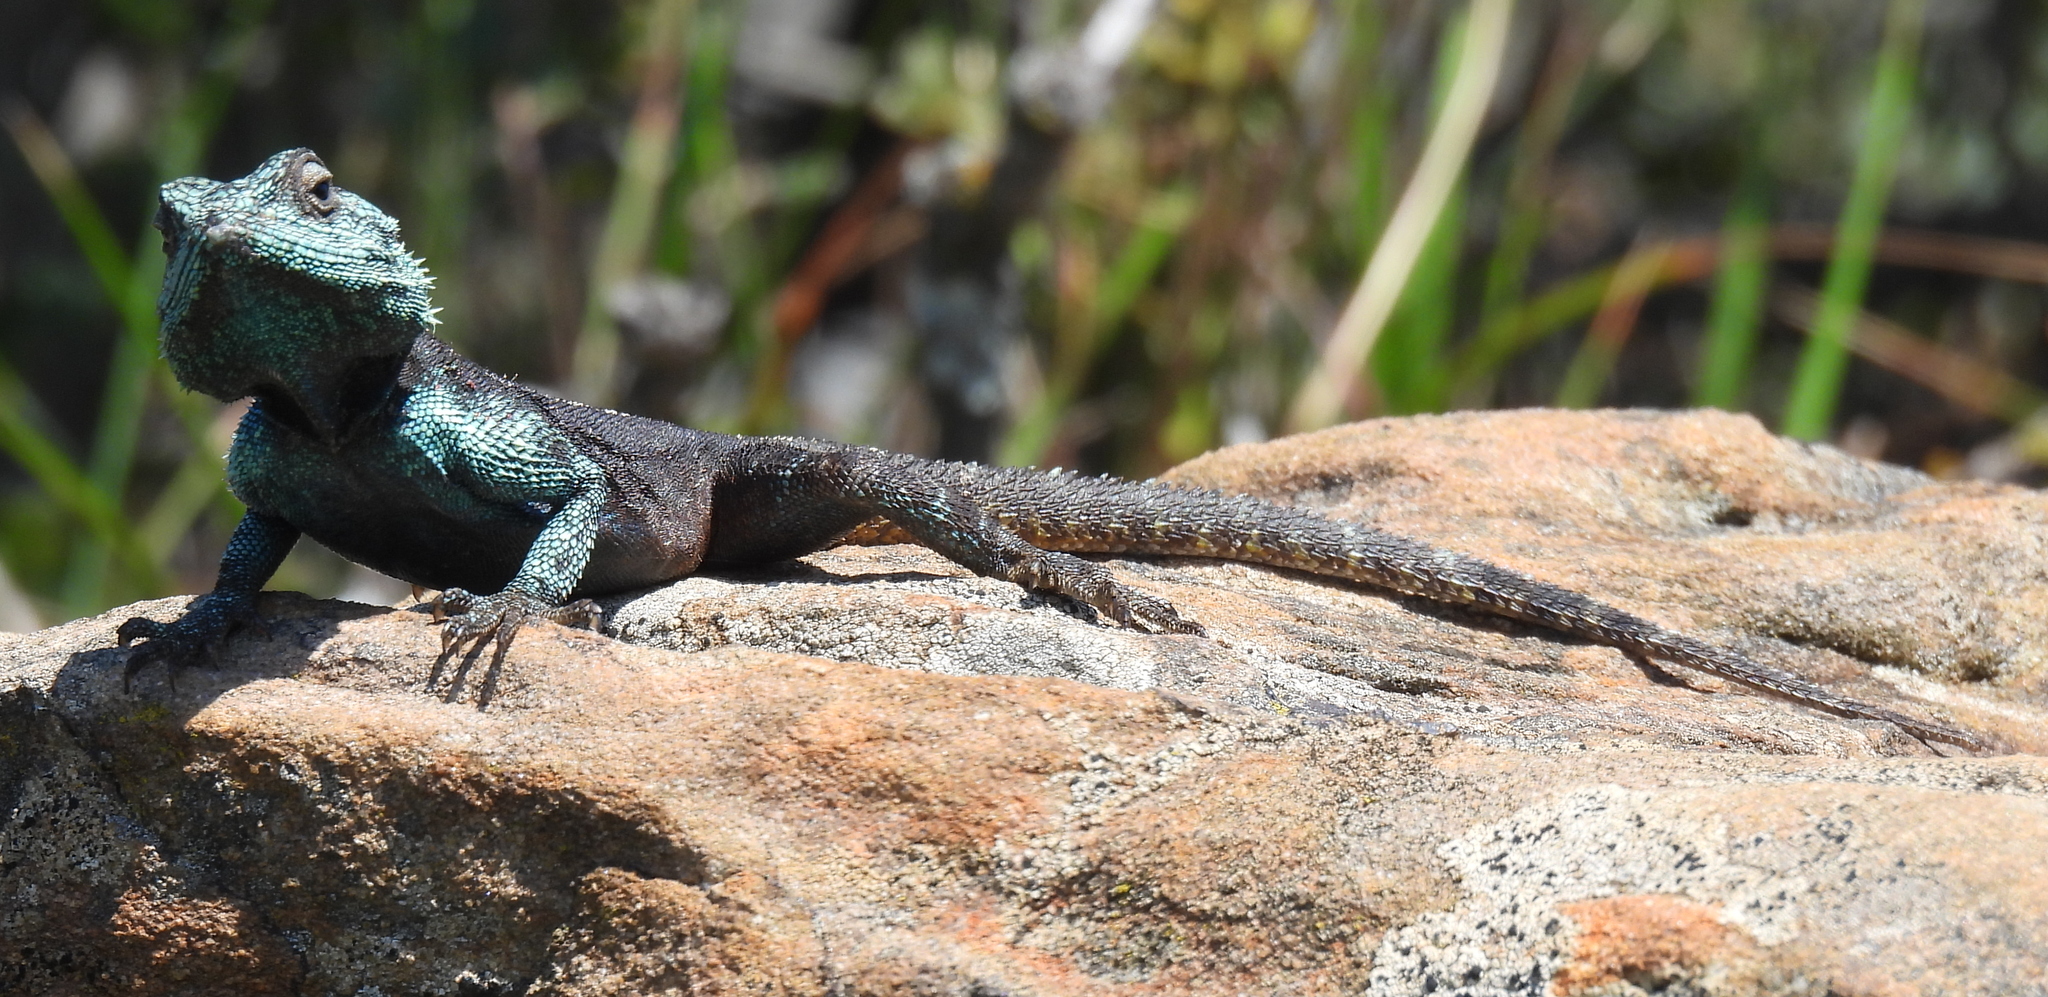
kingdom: Animalia
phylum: Chordata
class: Squamata
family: Agamidae
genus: Agama
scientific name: Agama atra
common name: Southern african rock agama
